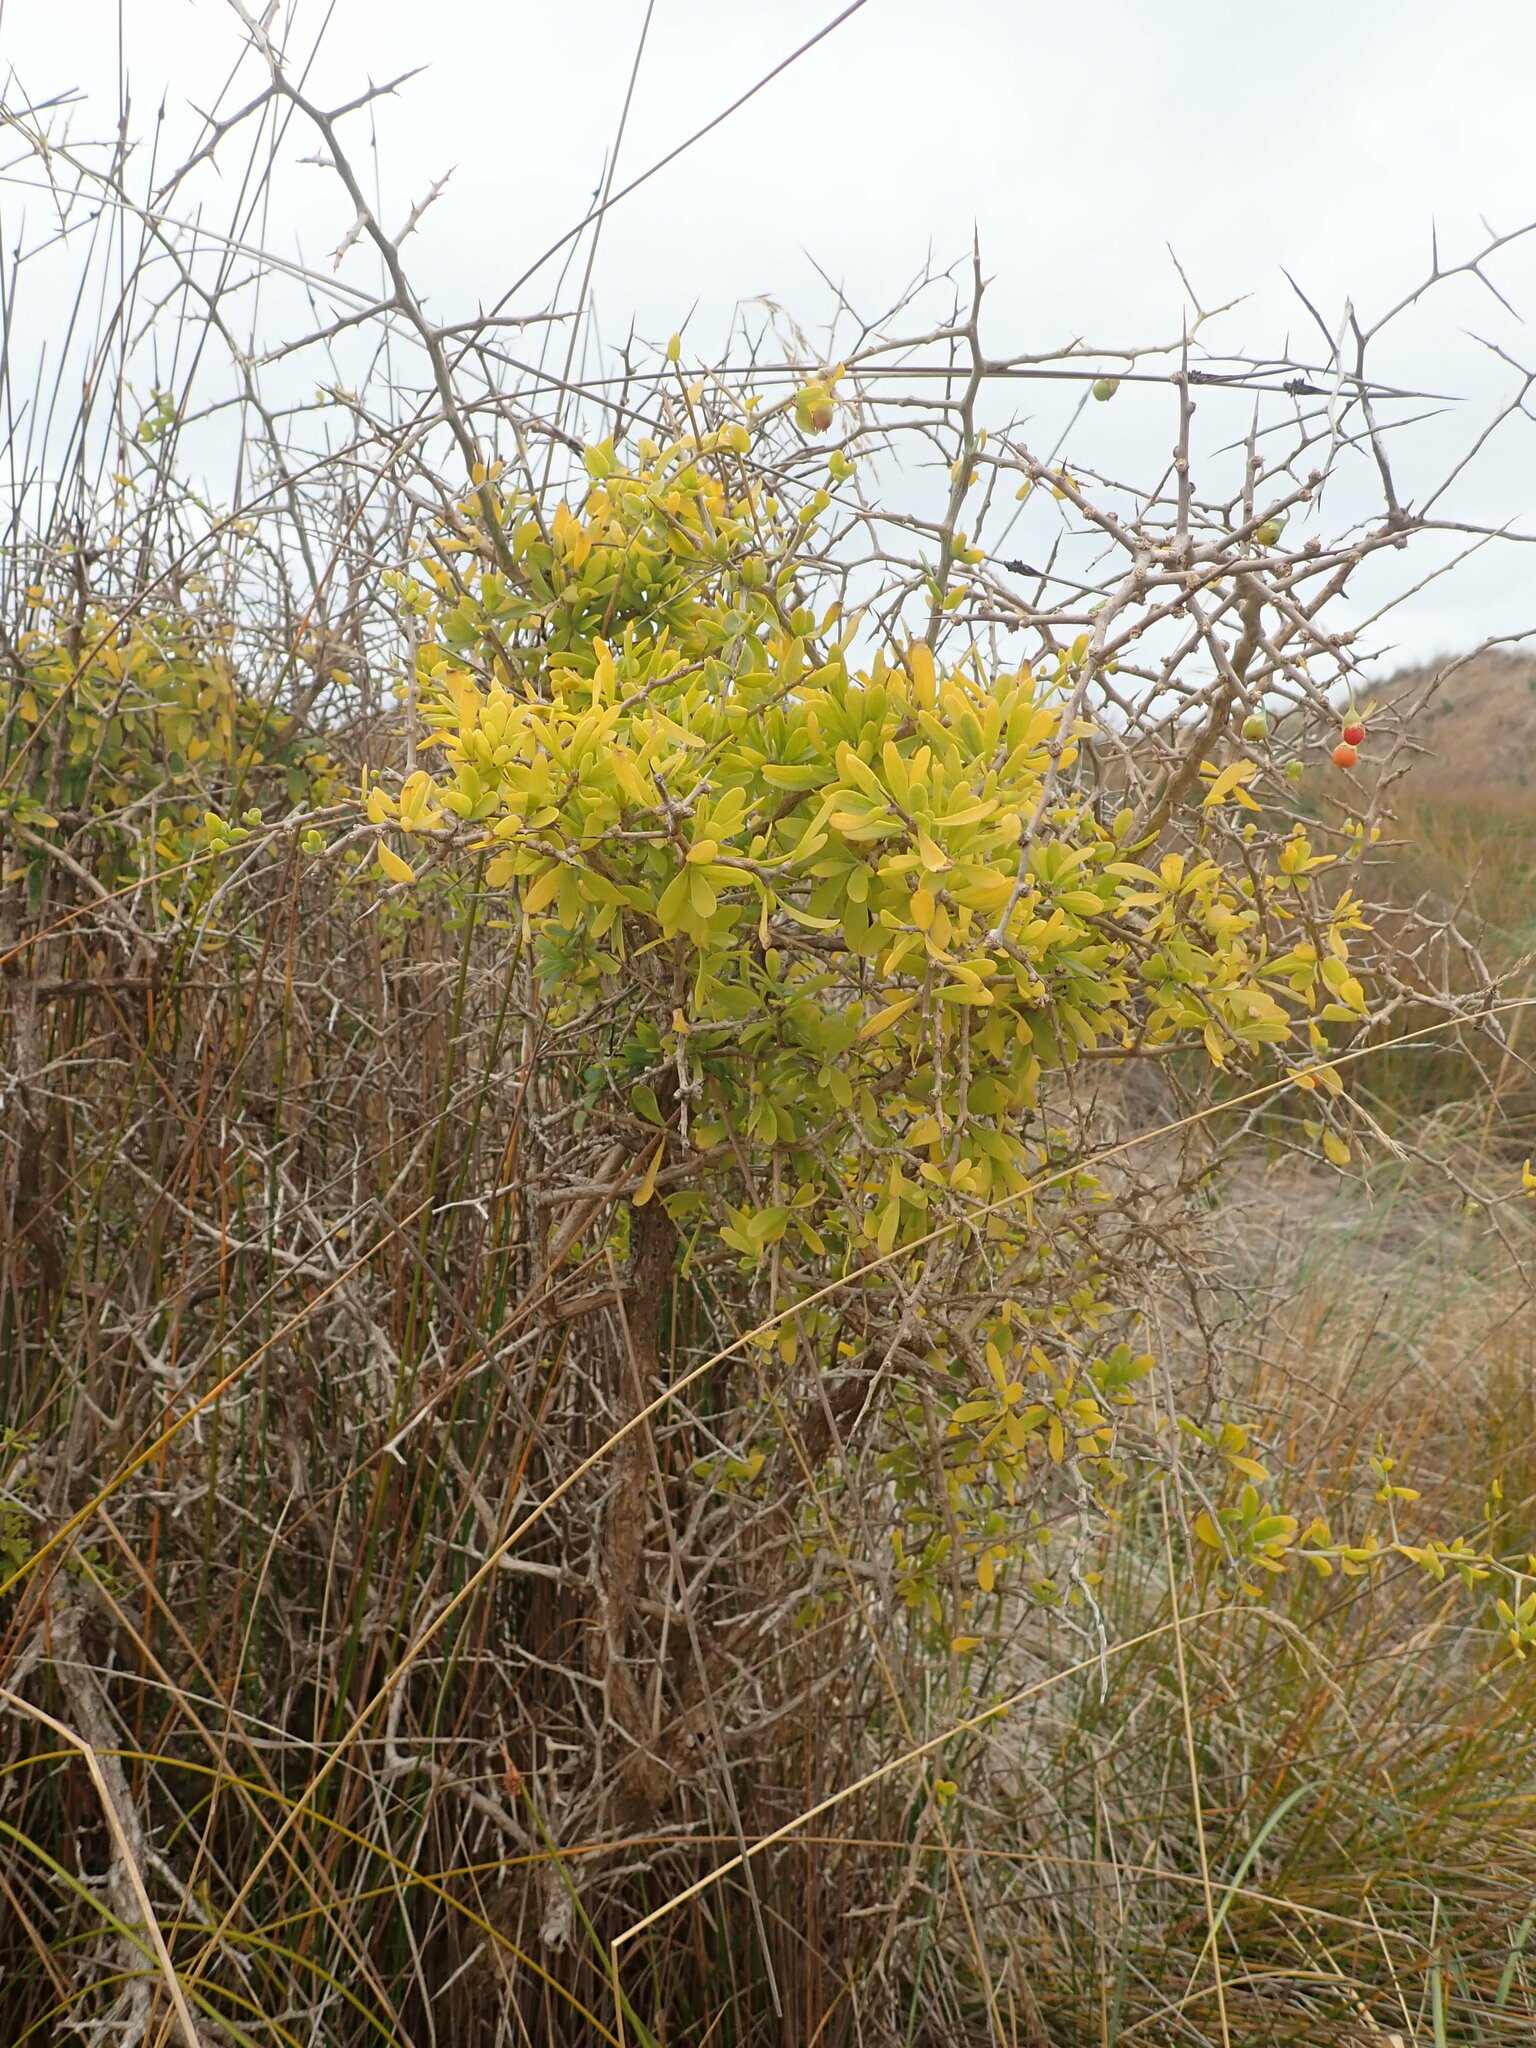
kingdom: Plantae
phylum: Tracheophyta
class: Magnoliopsida
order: Solanales
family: Solanaceae
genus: Lycium
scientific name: Lycium ferocissimum
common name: African boxthorn
